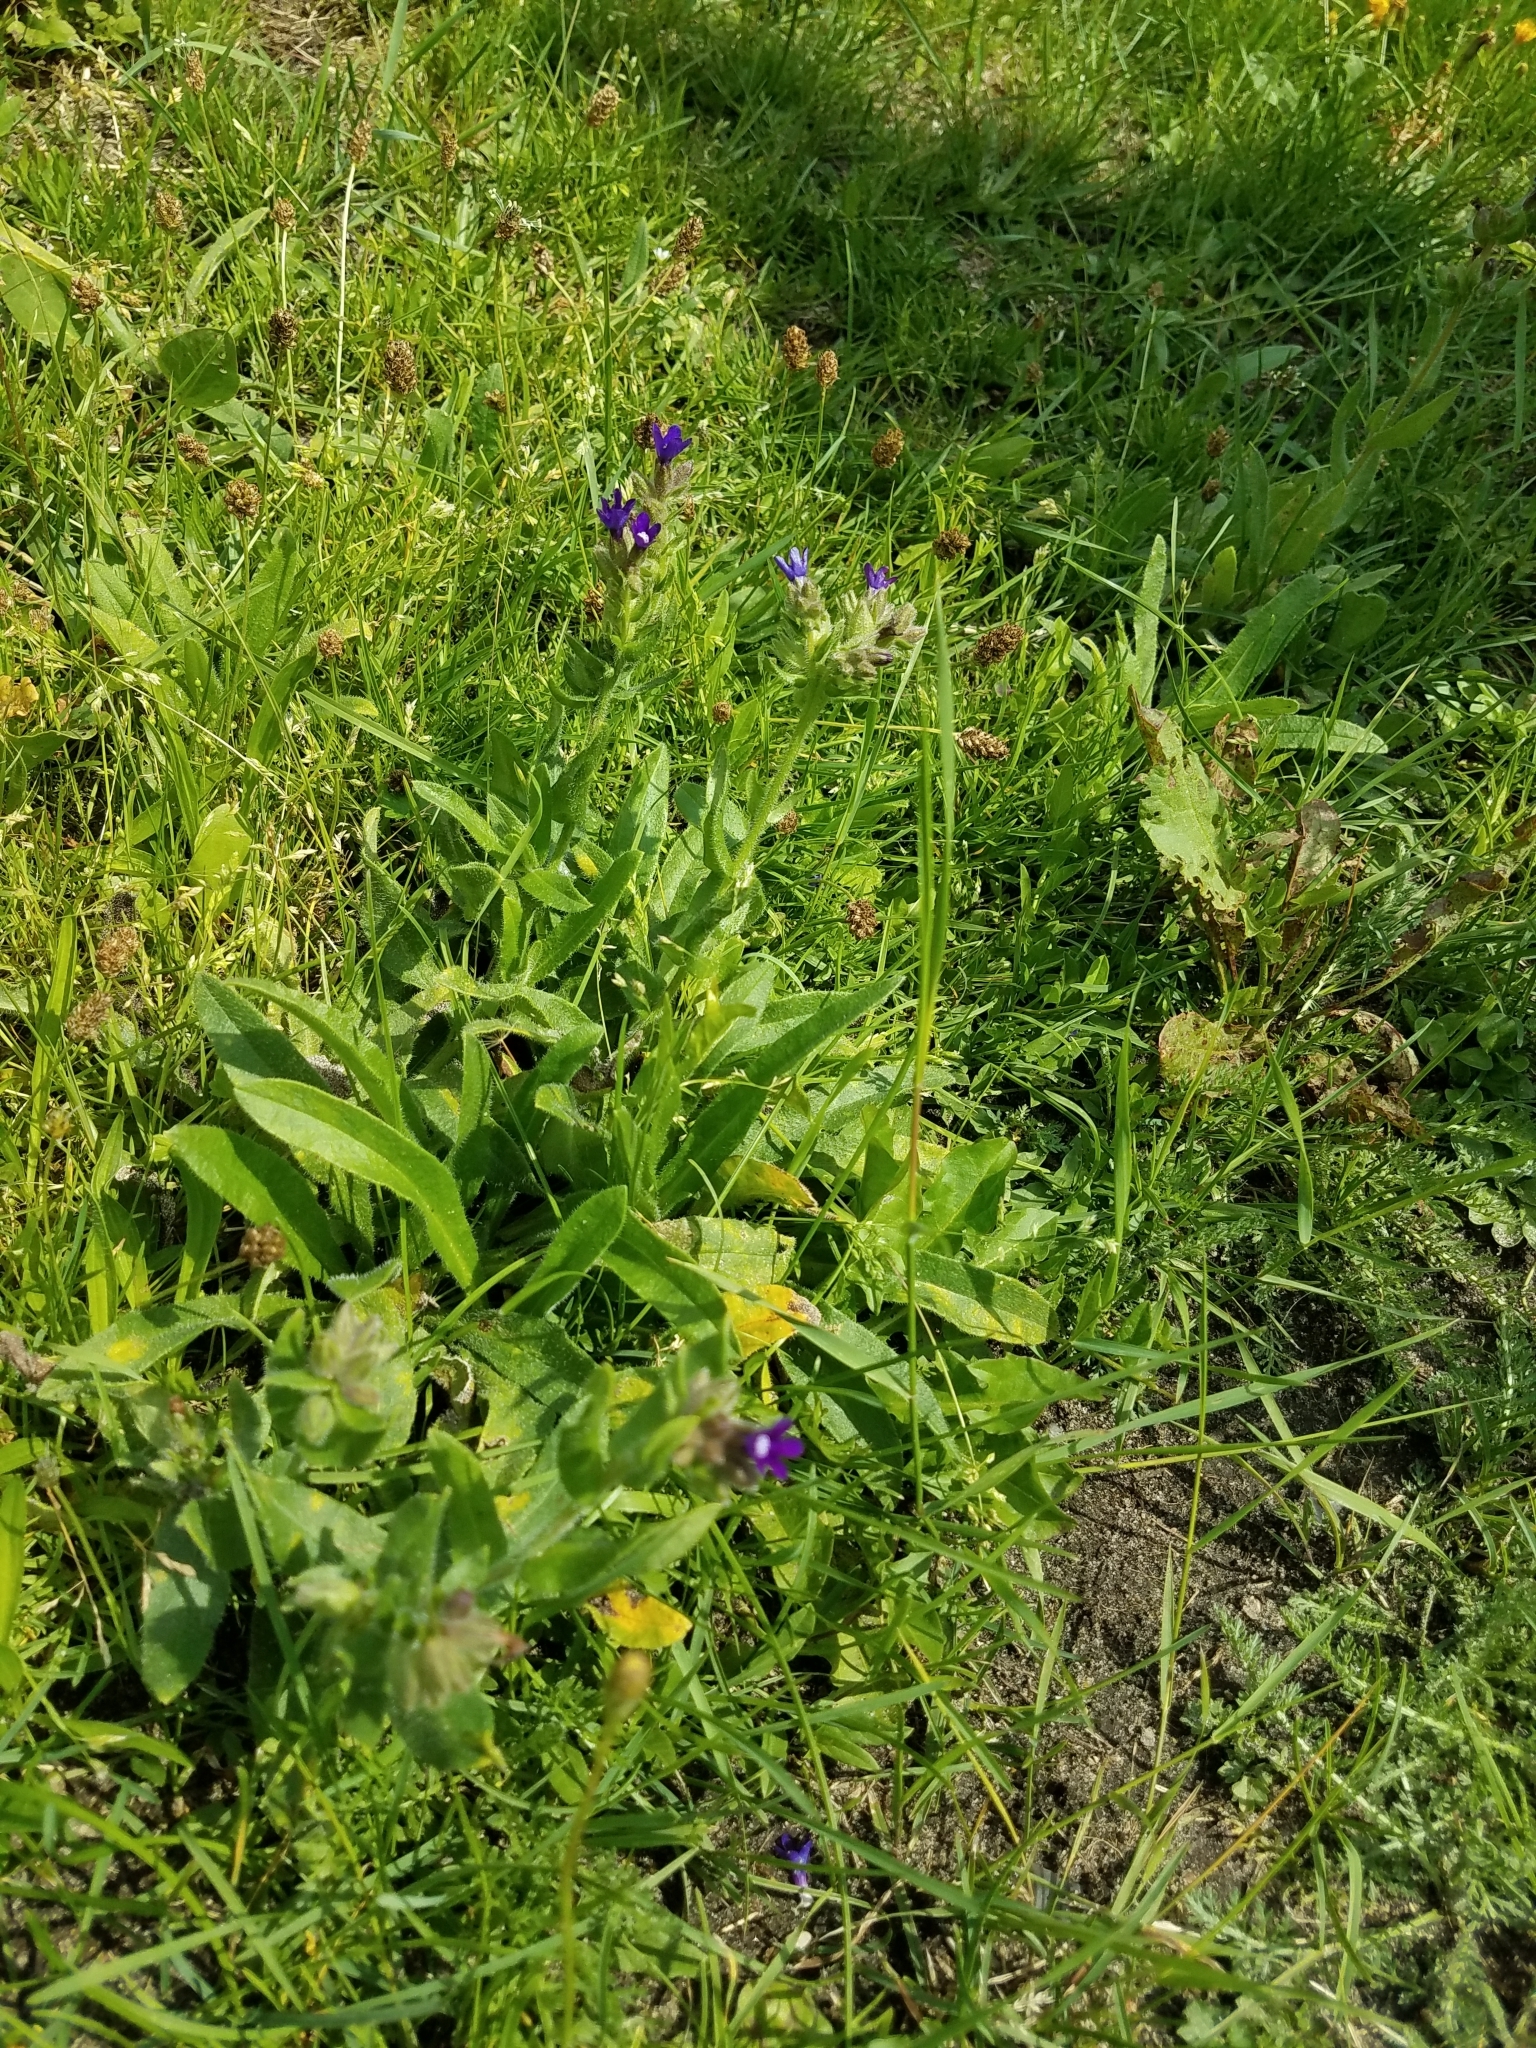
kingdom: Plantae
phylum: Tracheophyta
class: Magnoliopsida
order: Boraginales
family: Boraginaceae
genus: Anchusa
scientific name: Anchusa officinalis
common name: Alkanet
